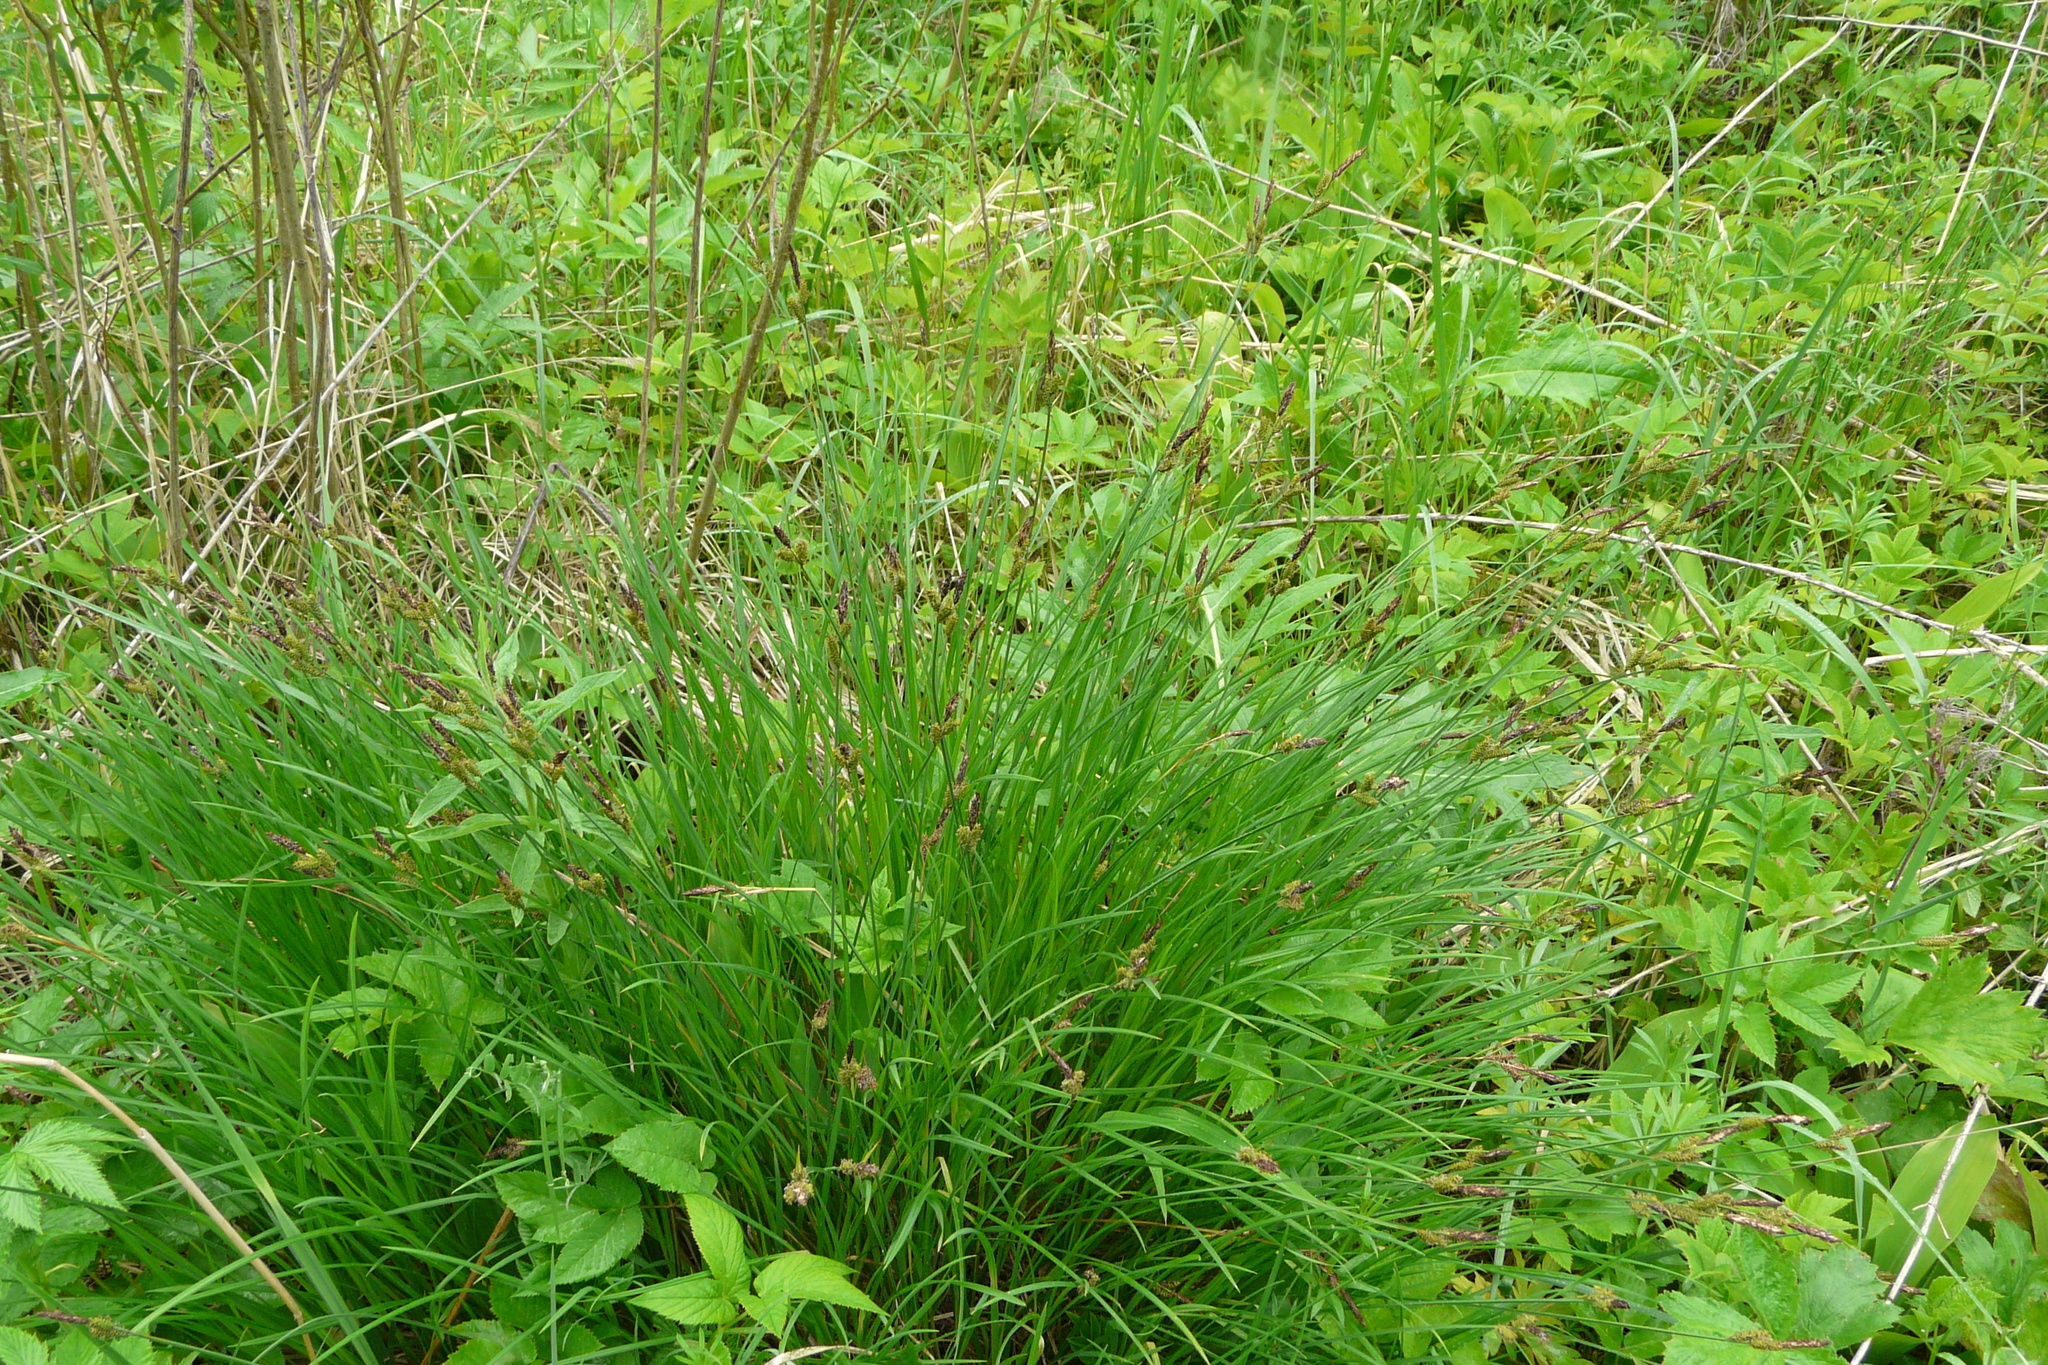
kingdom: Plantae
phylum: Tracheophyta
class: Liliopsida
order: Poales
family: Cyperaceae
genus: Carex
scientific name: Carex cespitosa
